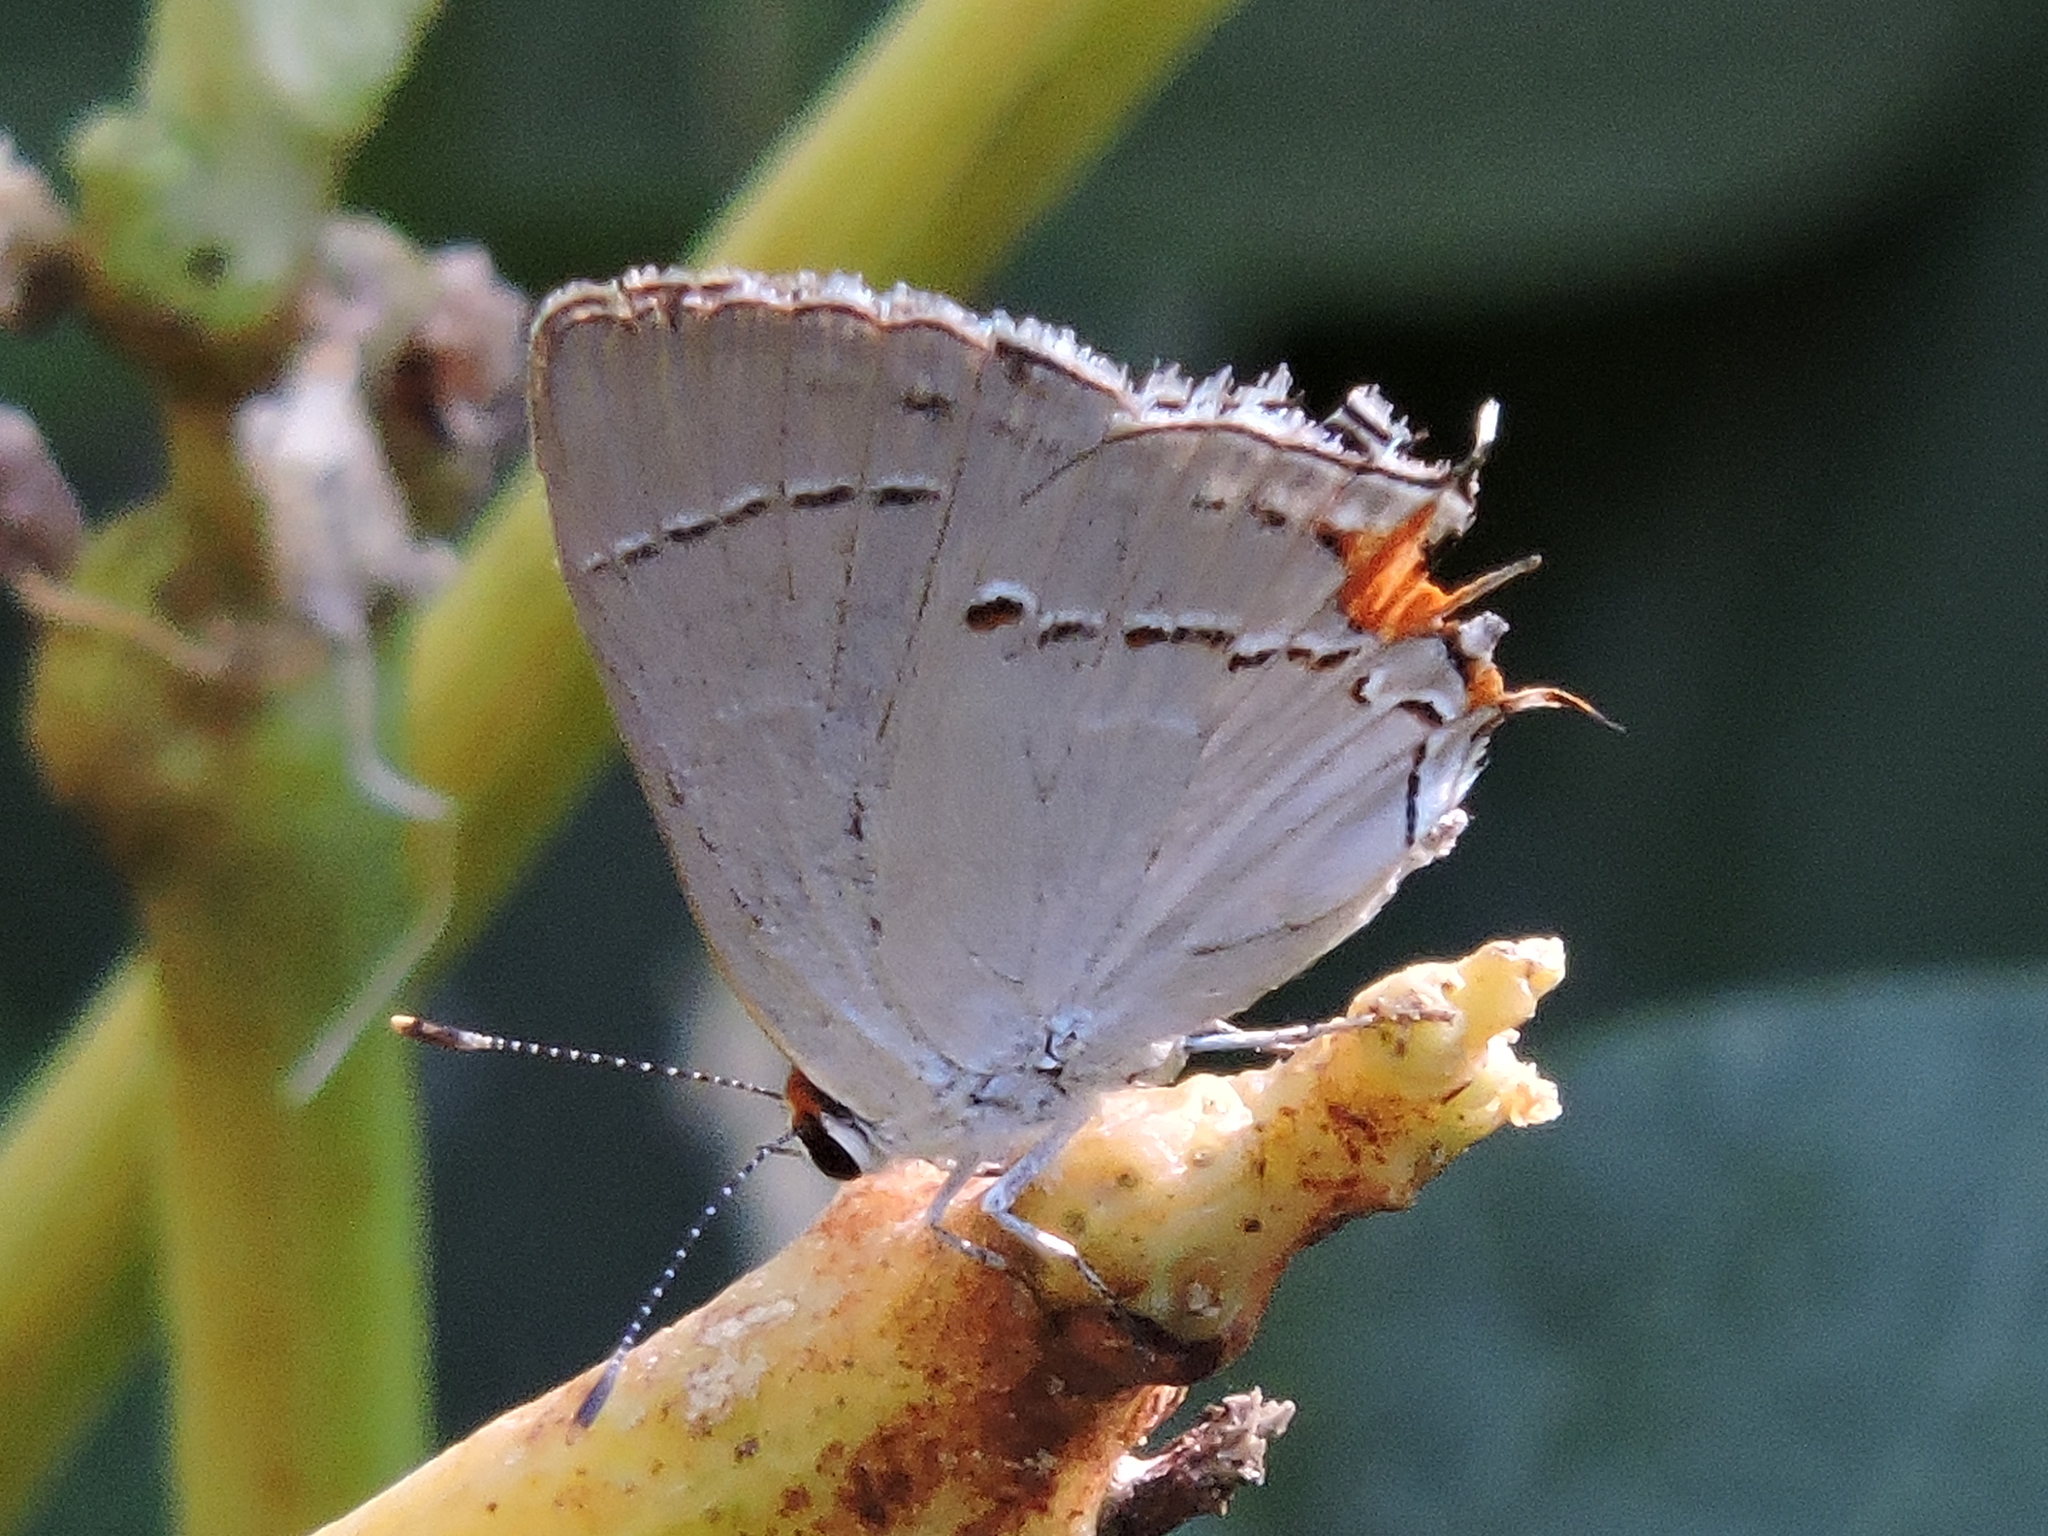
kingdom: Animalia
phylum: Arthropoda
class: Insecta
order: Lepidoptera
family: Lycaenidae
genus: Strymon
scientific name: Strymon melinus
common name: Gray hairstreak
